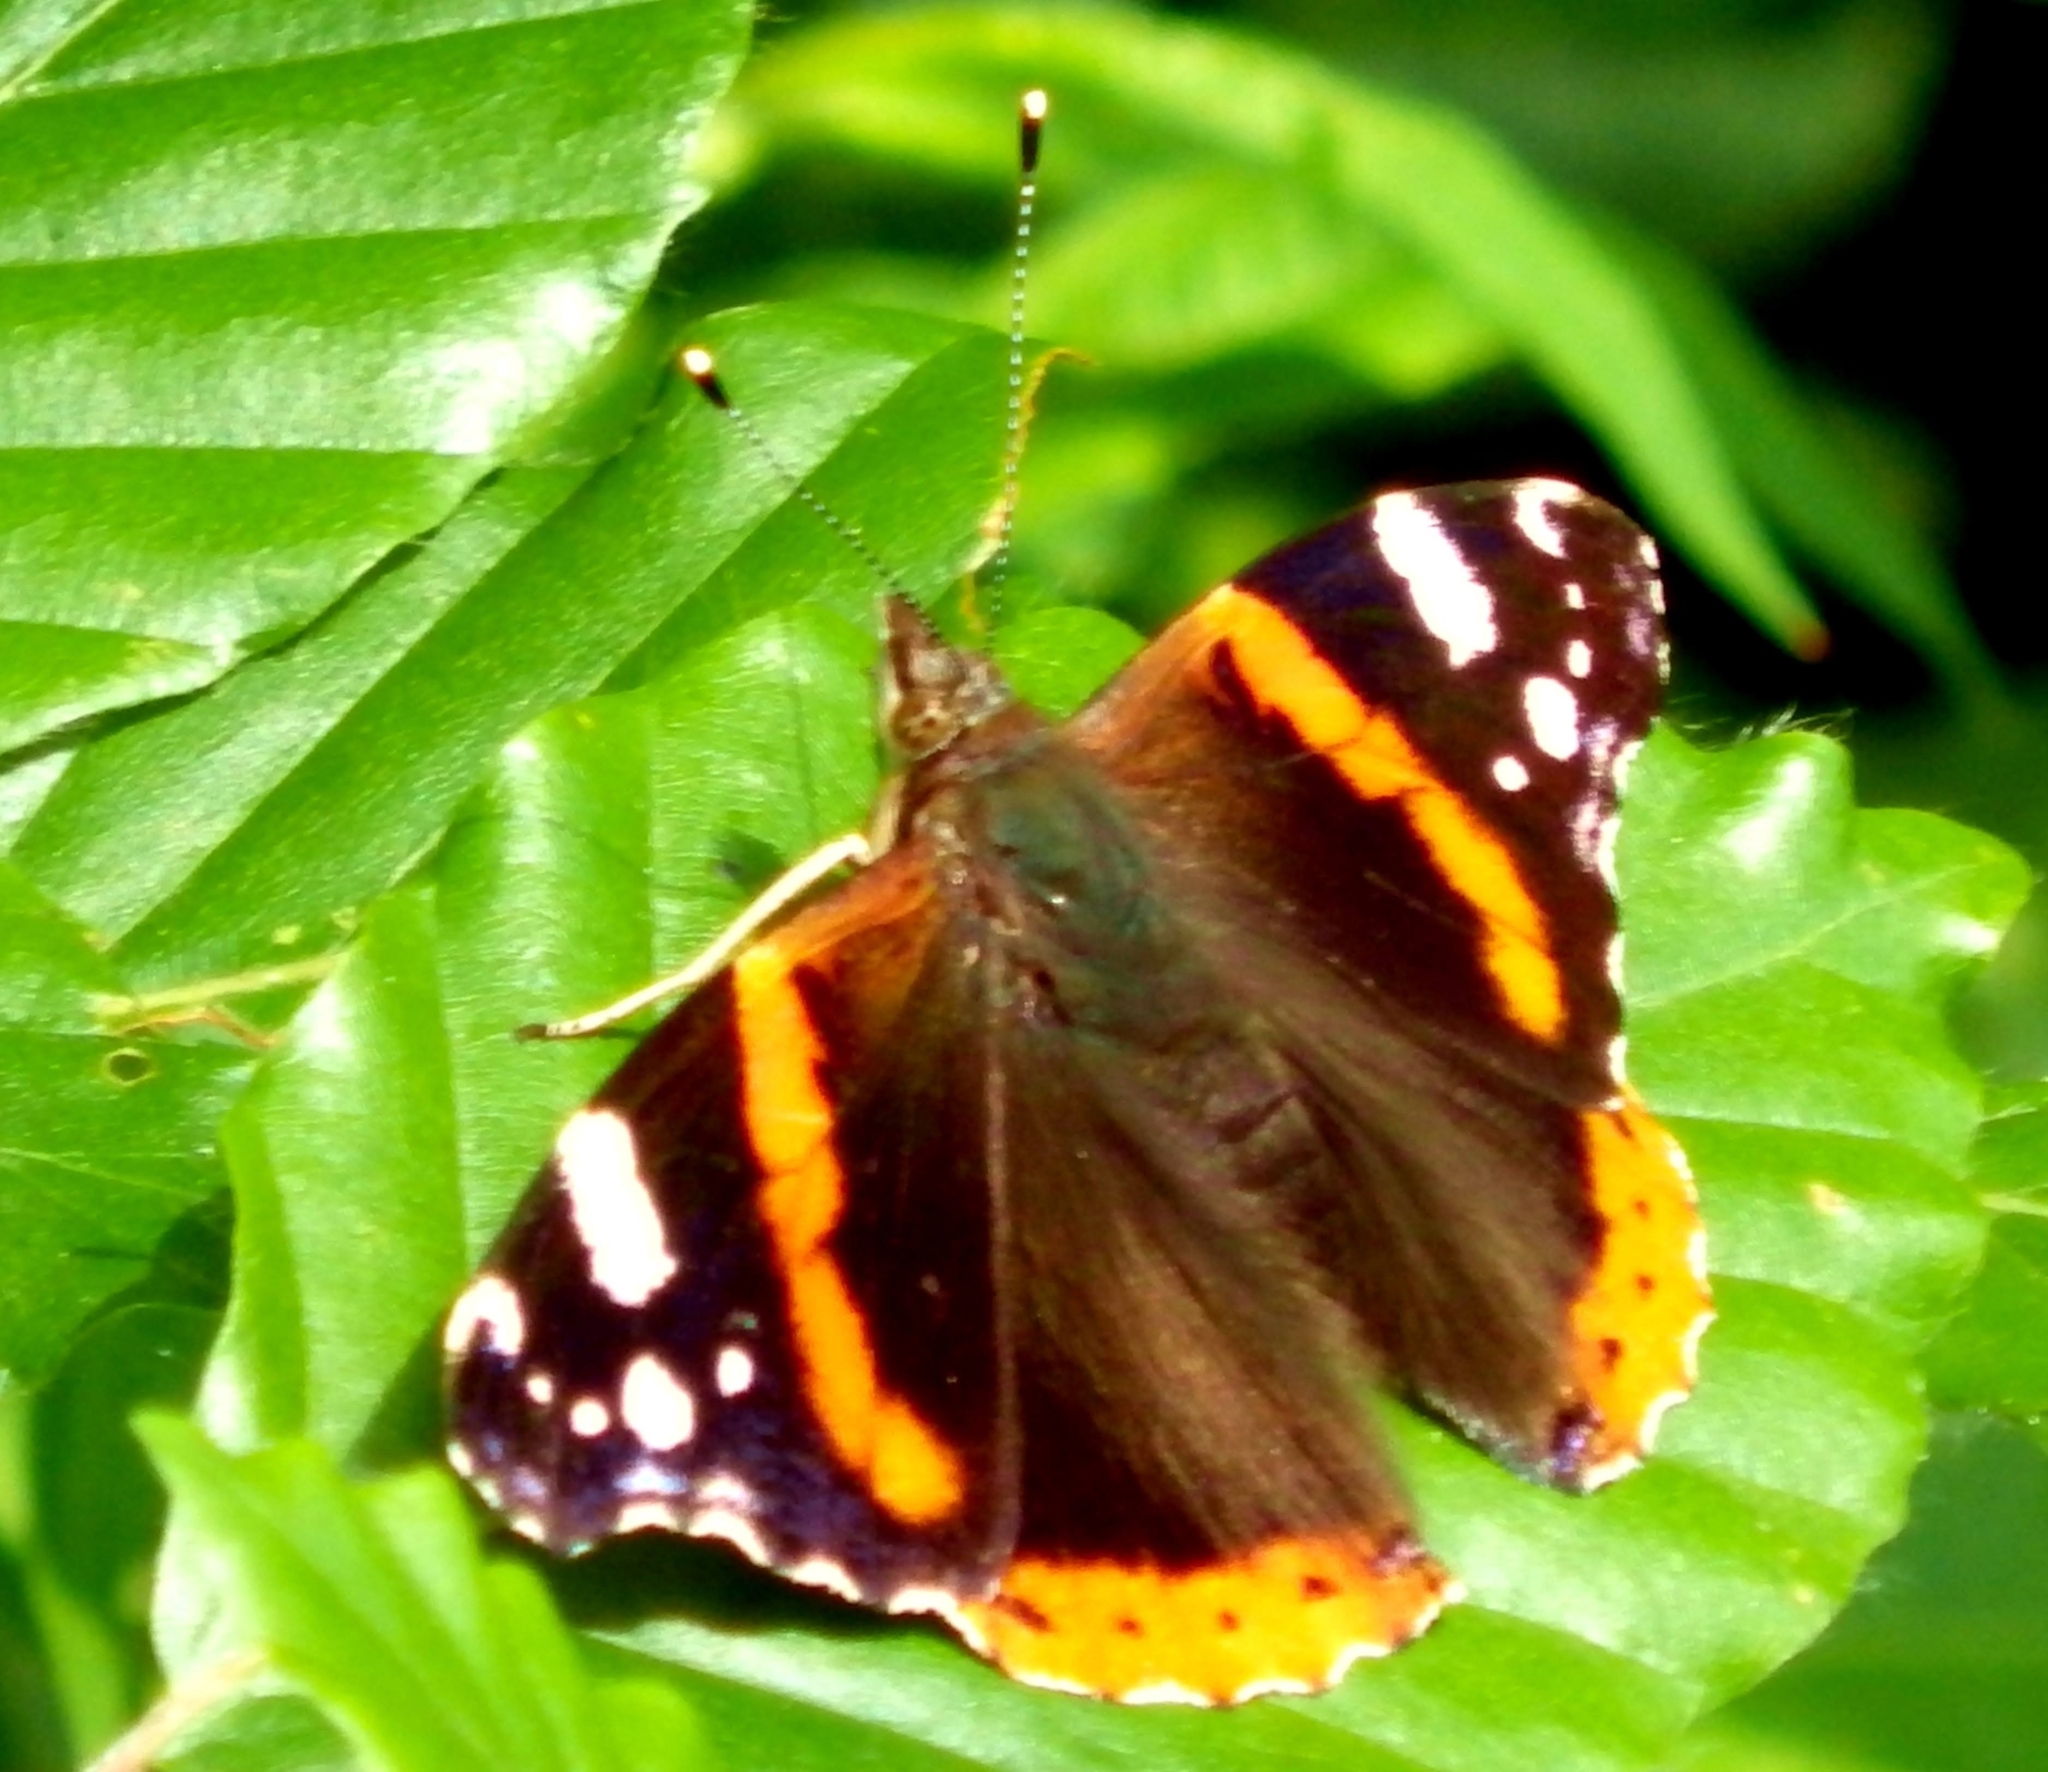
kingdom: Animalia
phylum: Arthropoda
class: Insecta
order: Lepidoptera
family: Nymphalidae
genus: Vanessa
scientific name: Vanessa atalanta
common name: Red admiral
